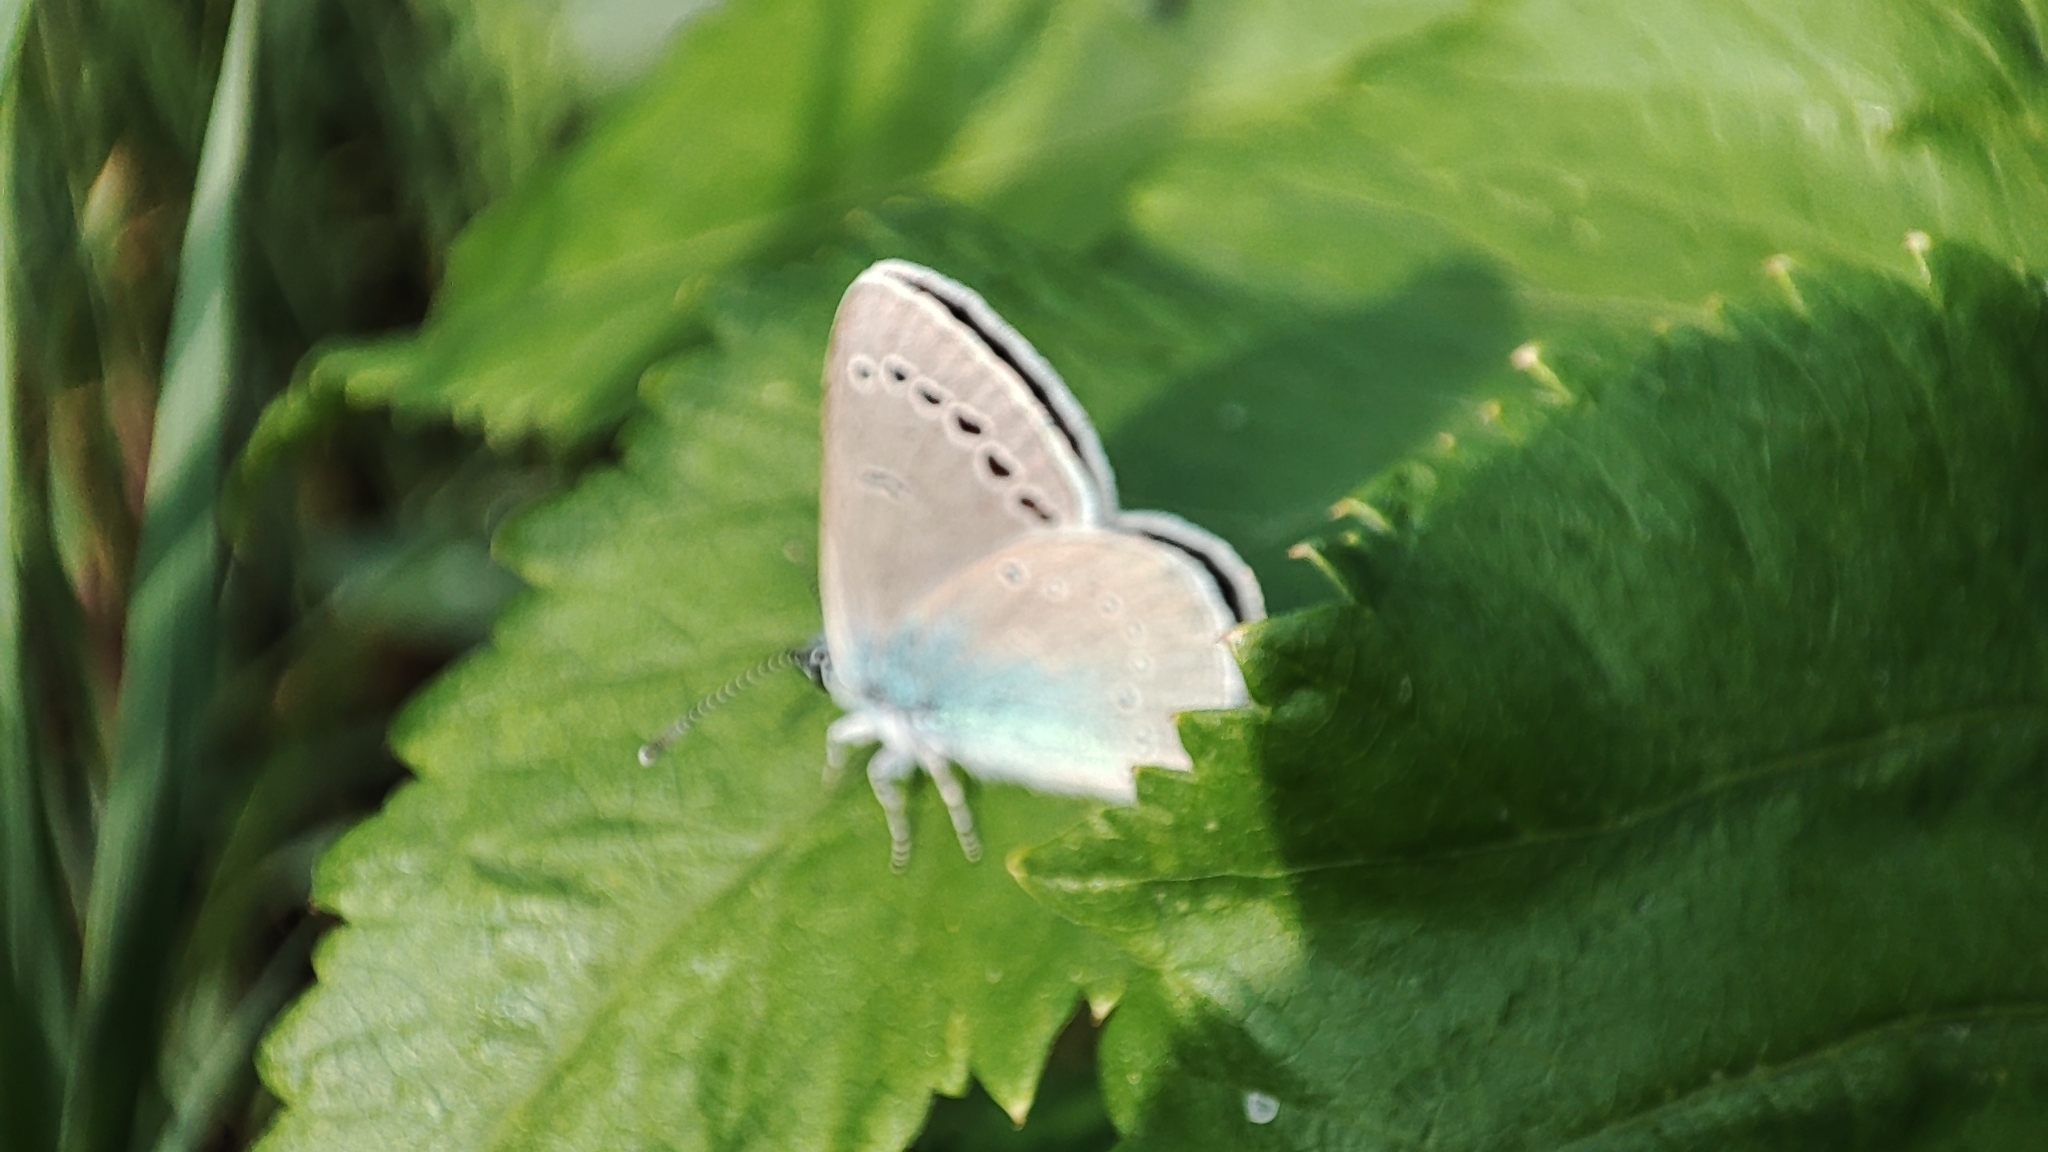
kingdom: Animalia
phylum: Arthropoda
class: Insecta
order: Lepidoptera
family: Lycaenidae
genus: Glaucopsyche
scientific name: Glaucopsyche lycormas
